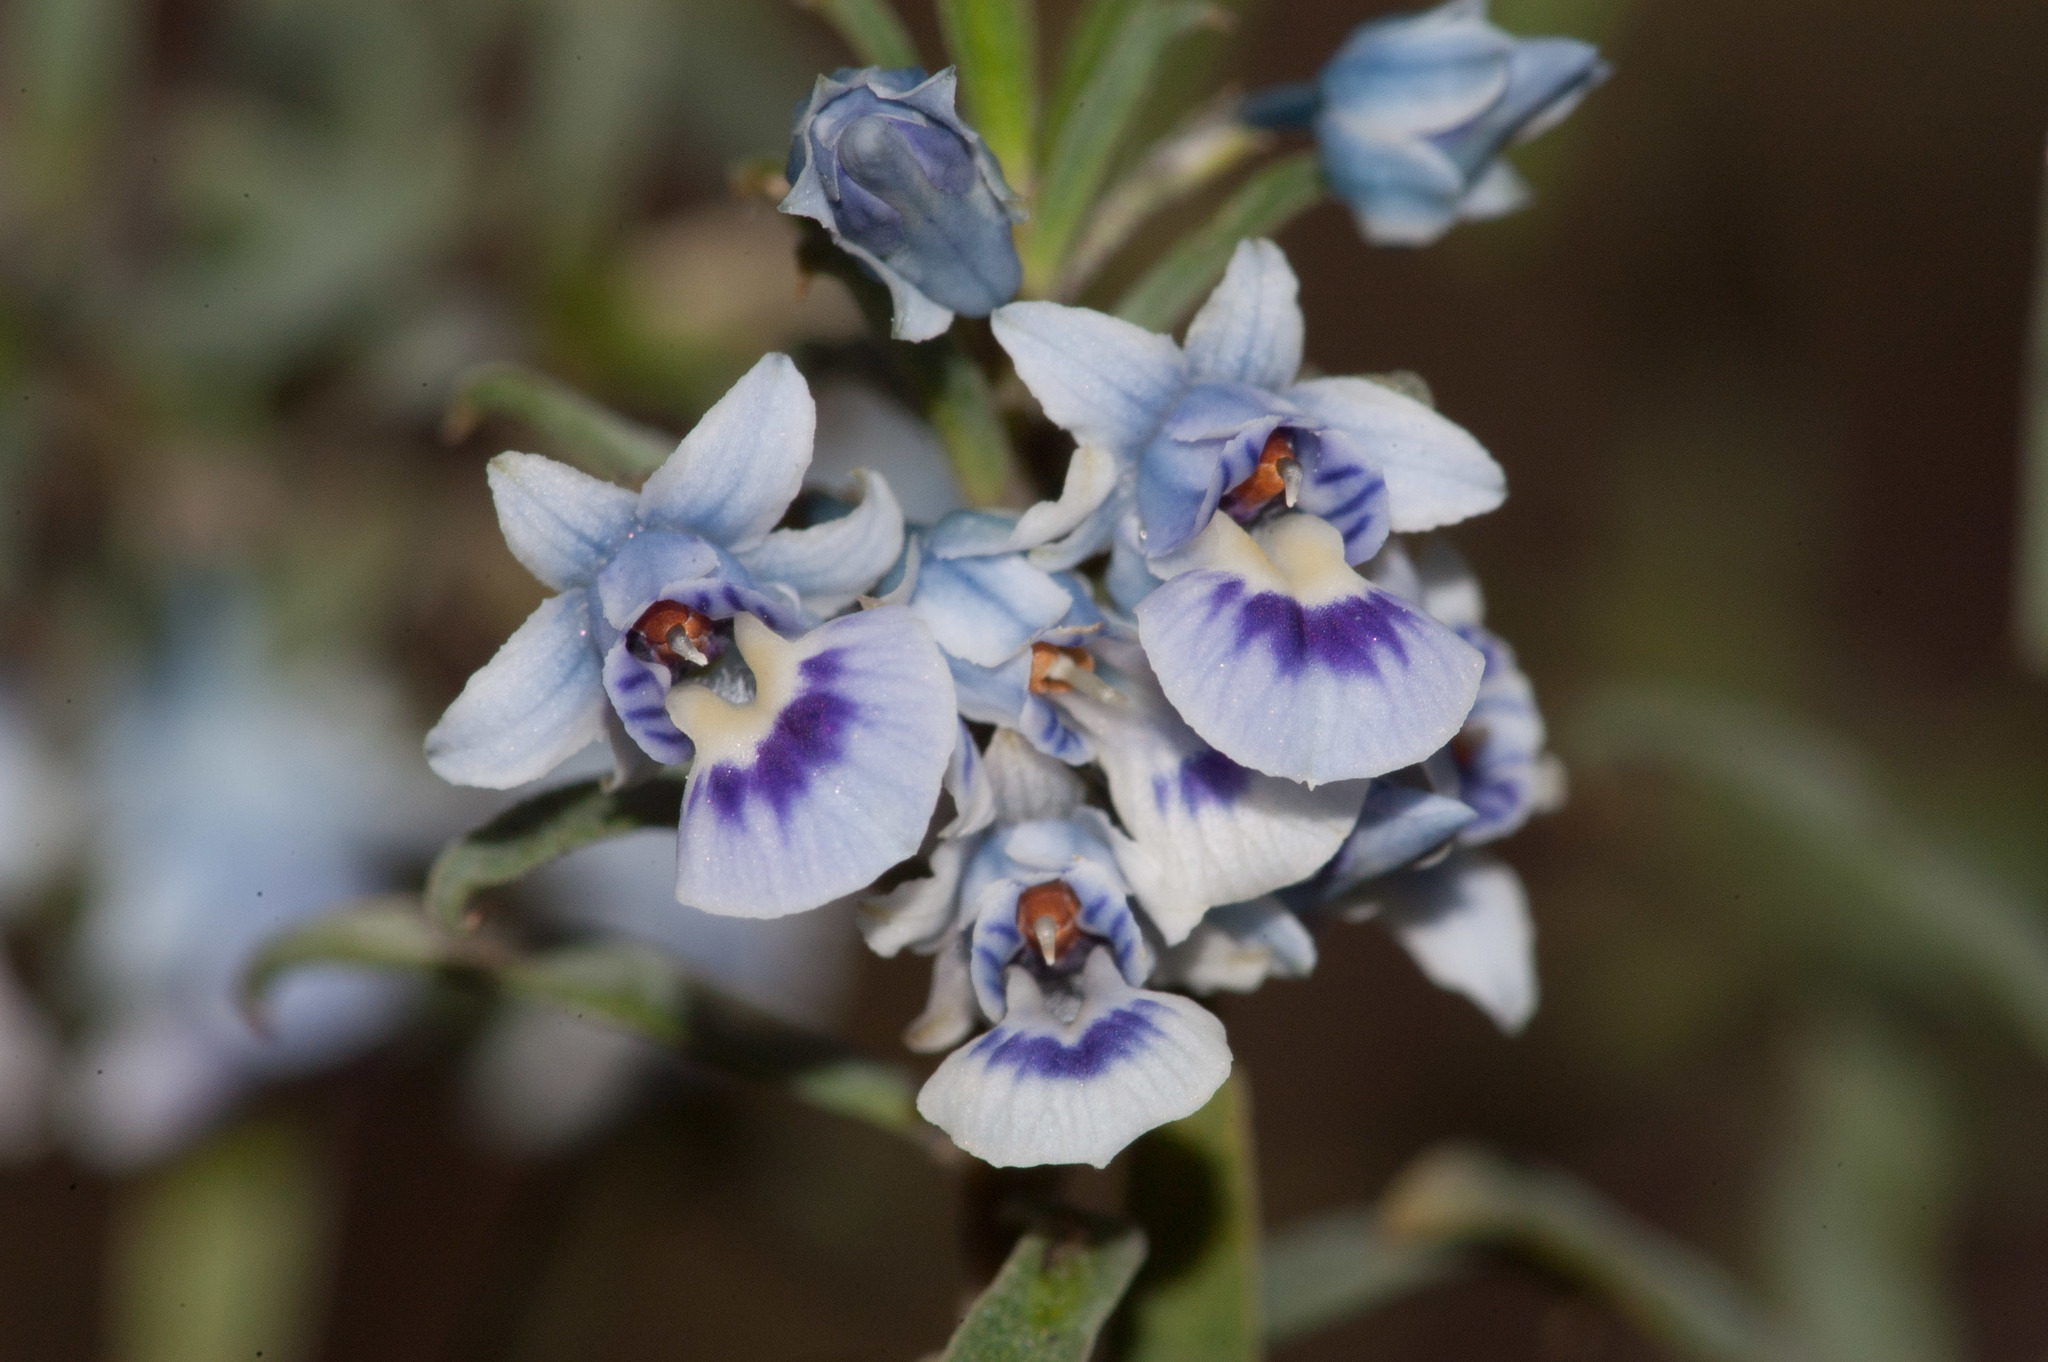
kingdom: Plantae
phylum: Tracheophyta
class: Magnoliopsida
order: Malpighiales
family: Violaceae
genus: Pigea
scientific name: Pigea floribunda
